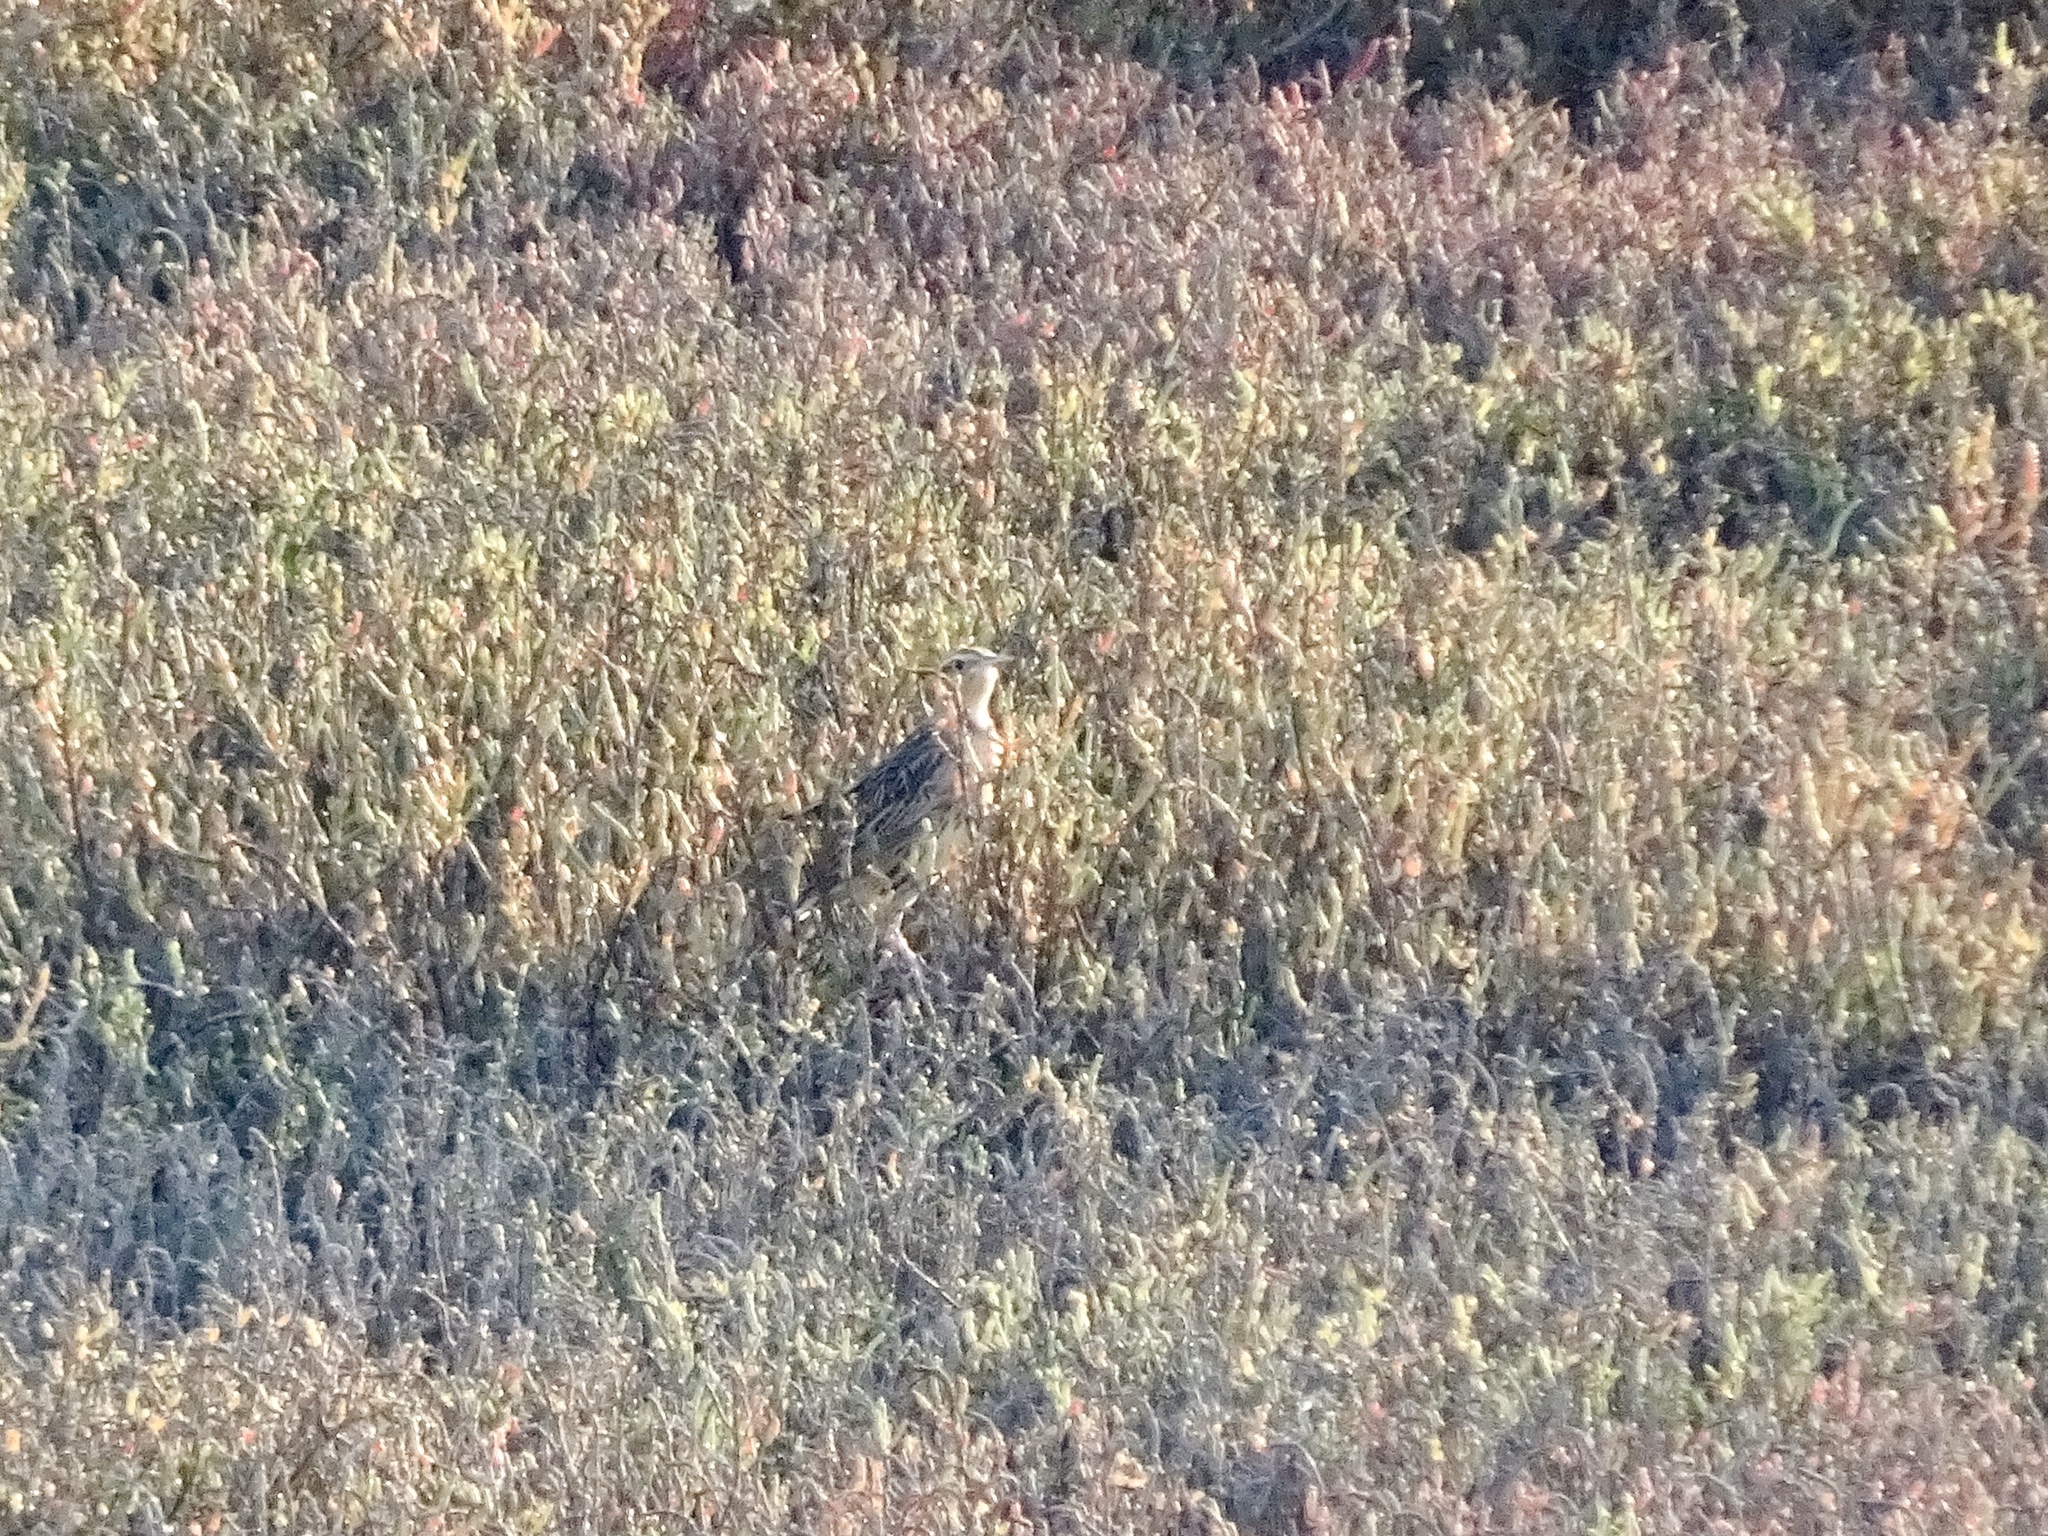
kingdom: Animalia
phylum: Chordata
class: Aves
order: Passeriformes
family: Icteridae
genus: Sturnella
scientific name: Sturnella neglecta
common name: Western meadowlark
